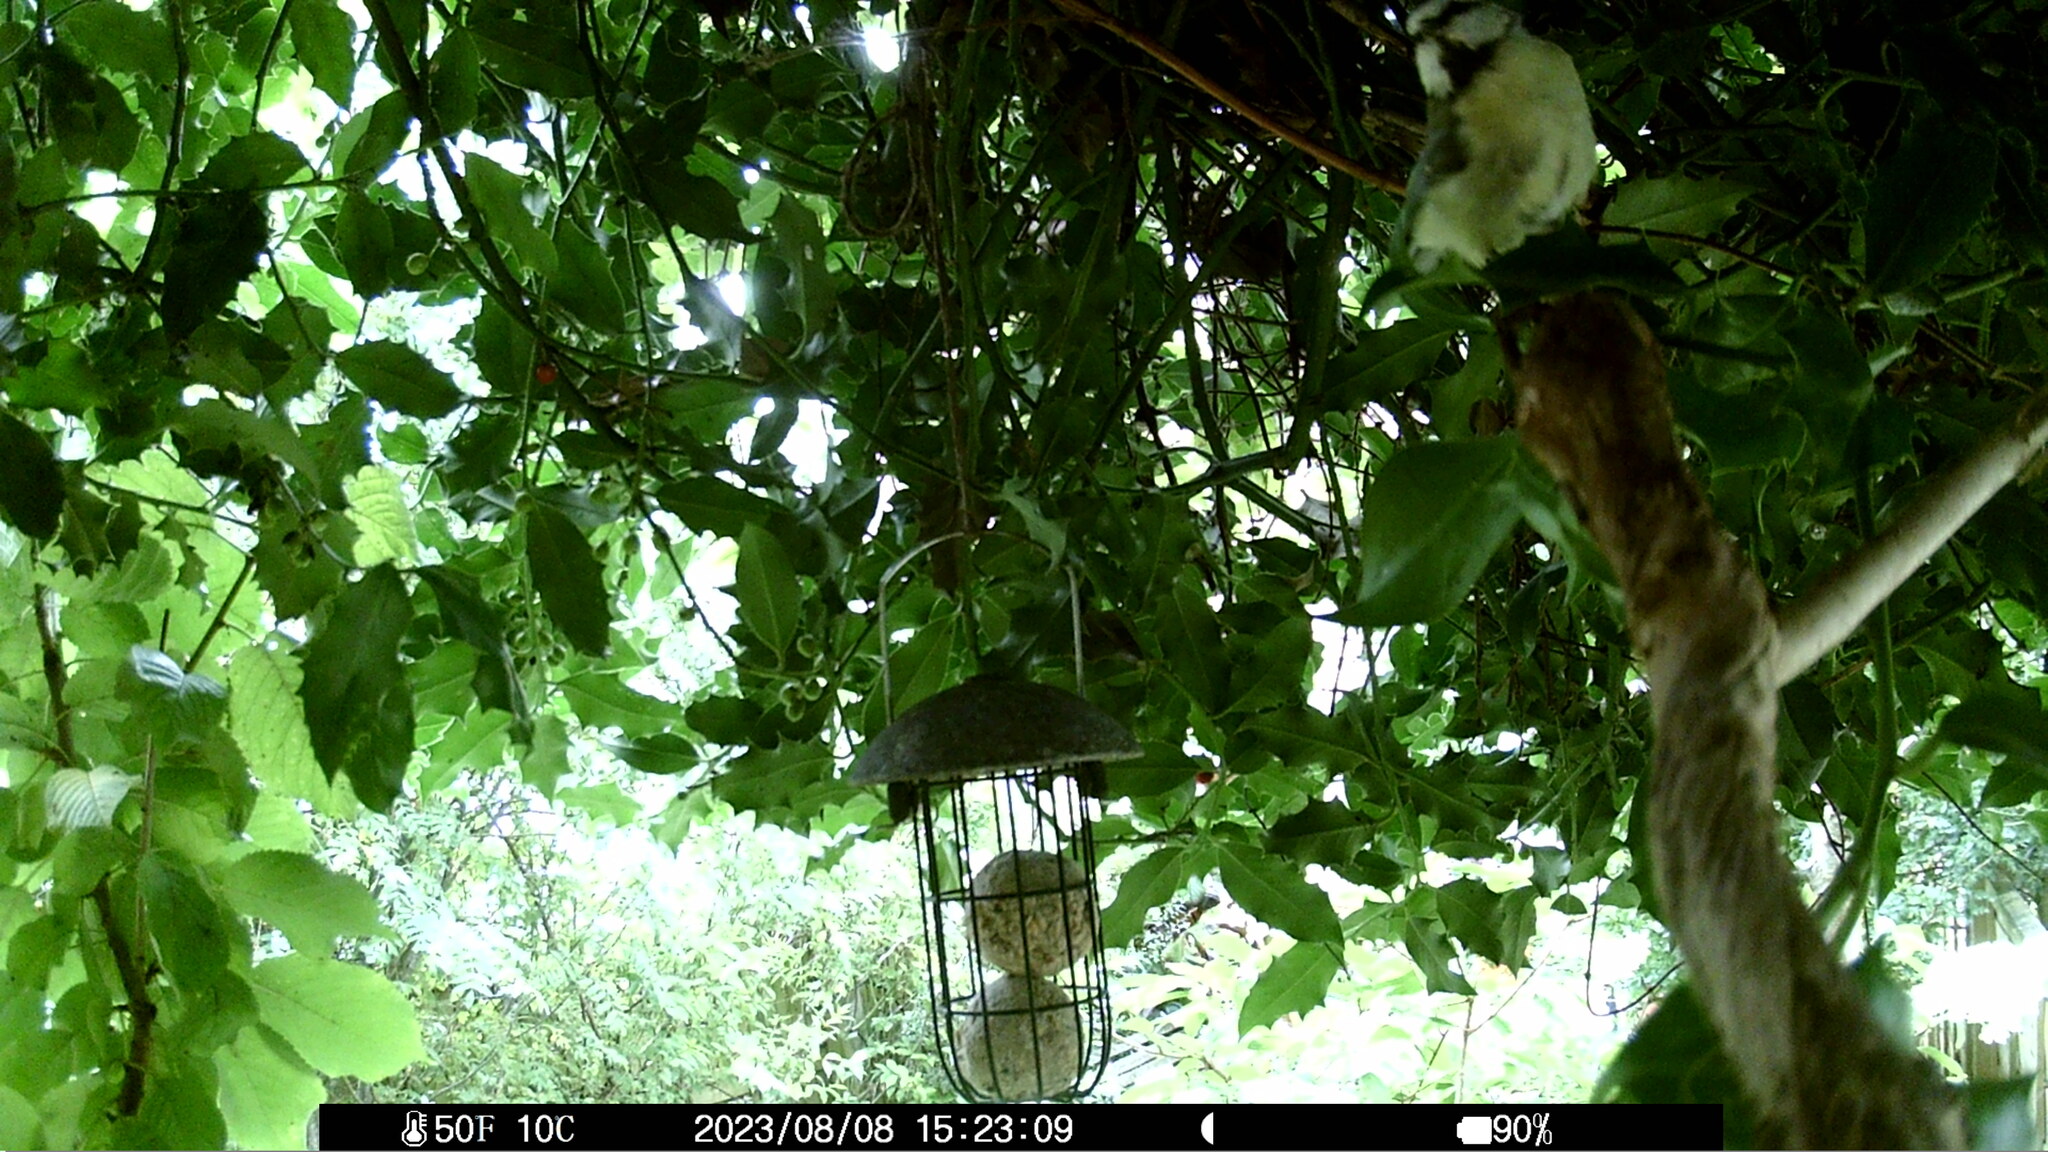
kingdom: Animalia
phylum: Chordata
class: Aves
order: Passeriformes
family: Paridae
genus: Cyanistes
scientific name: Cyanistes caeruleus
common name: Eurasian blue tit
